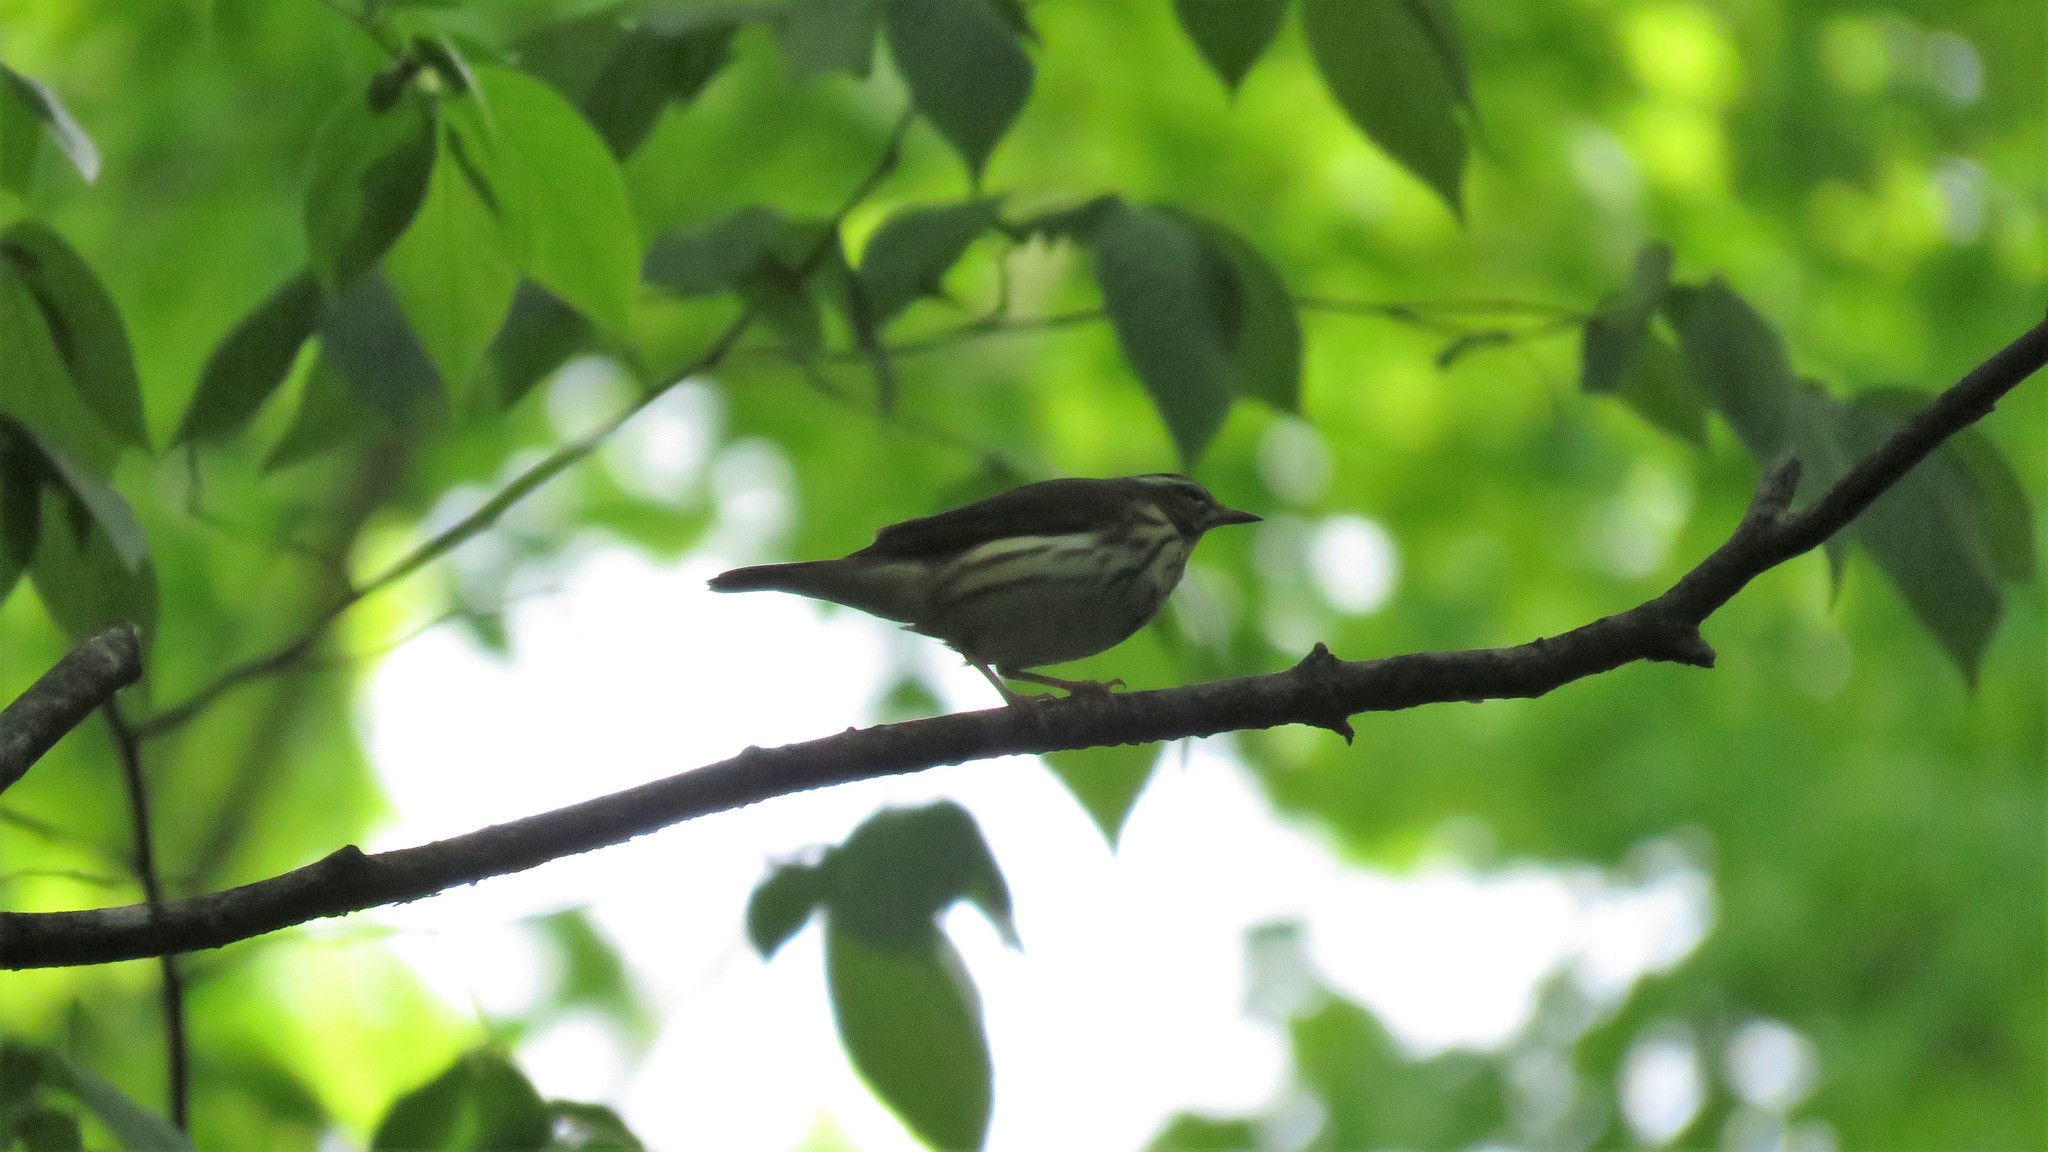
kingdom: Animalia
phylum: Chordata
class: Aves
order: Passeriformes
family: Parulidae
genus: Parkesia
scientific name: Parkesia motacilla
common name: Louisiana waterthrush
